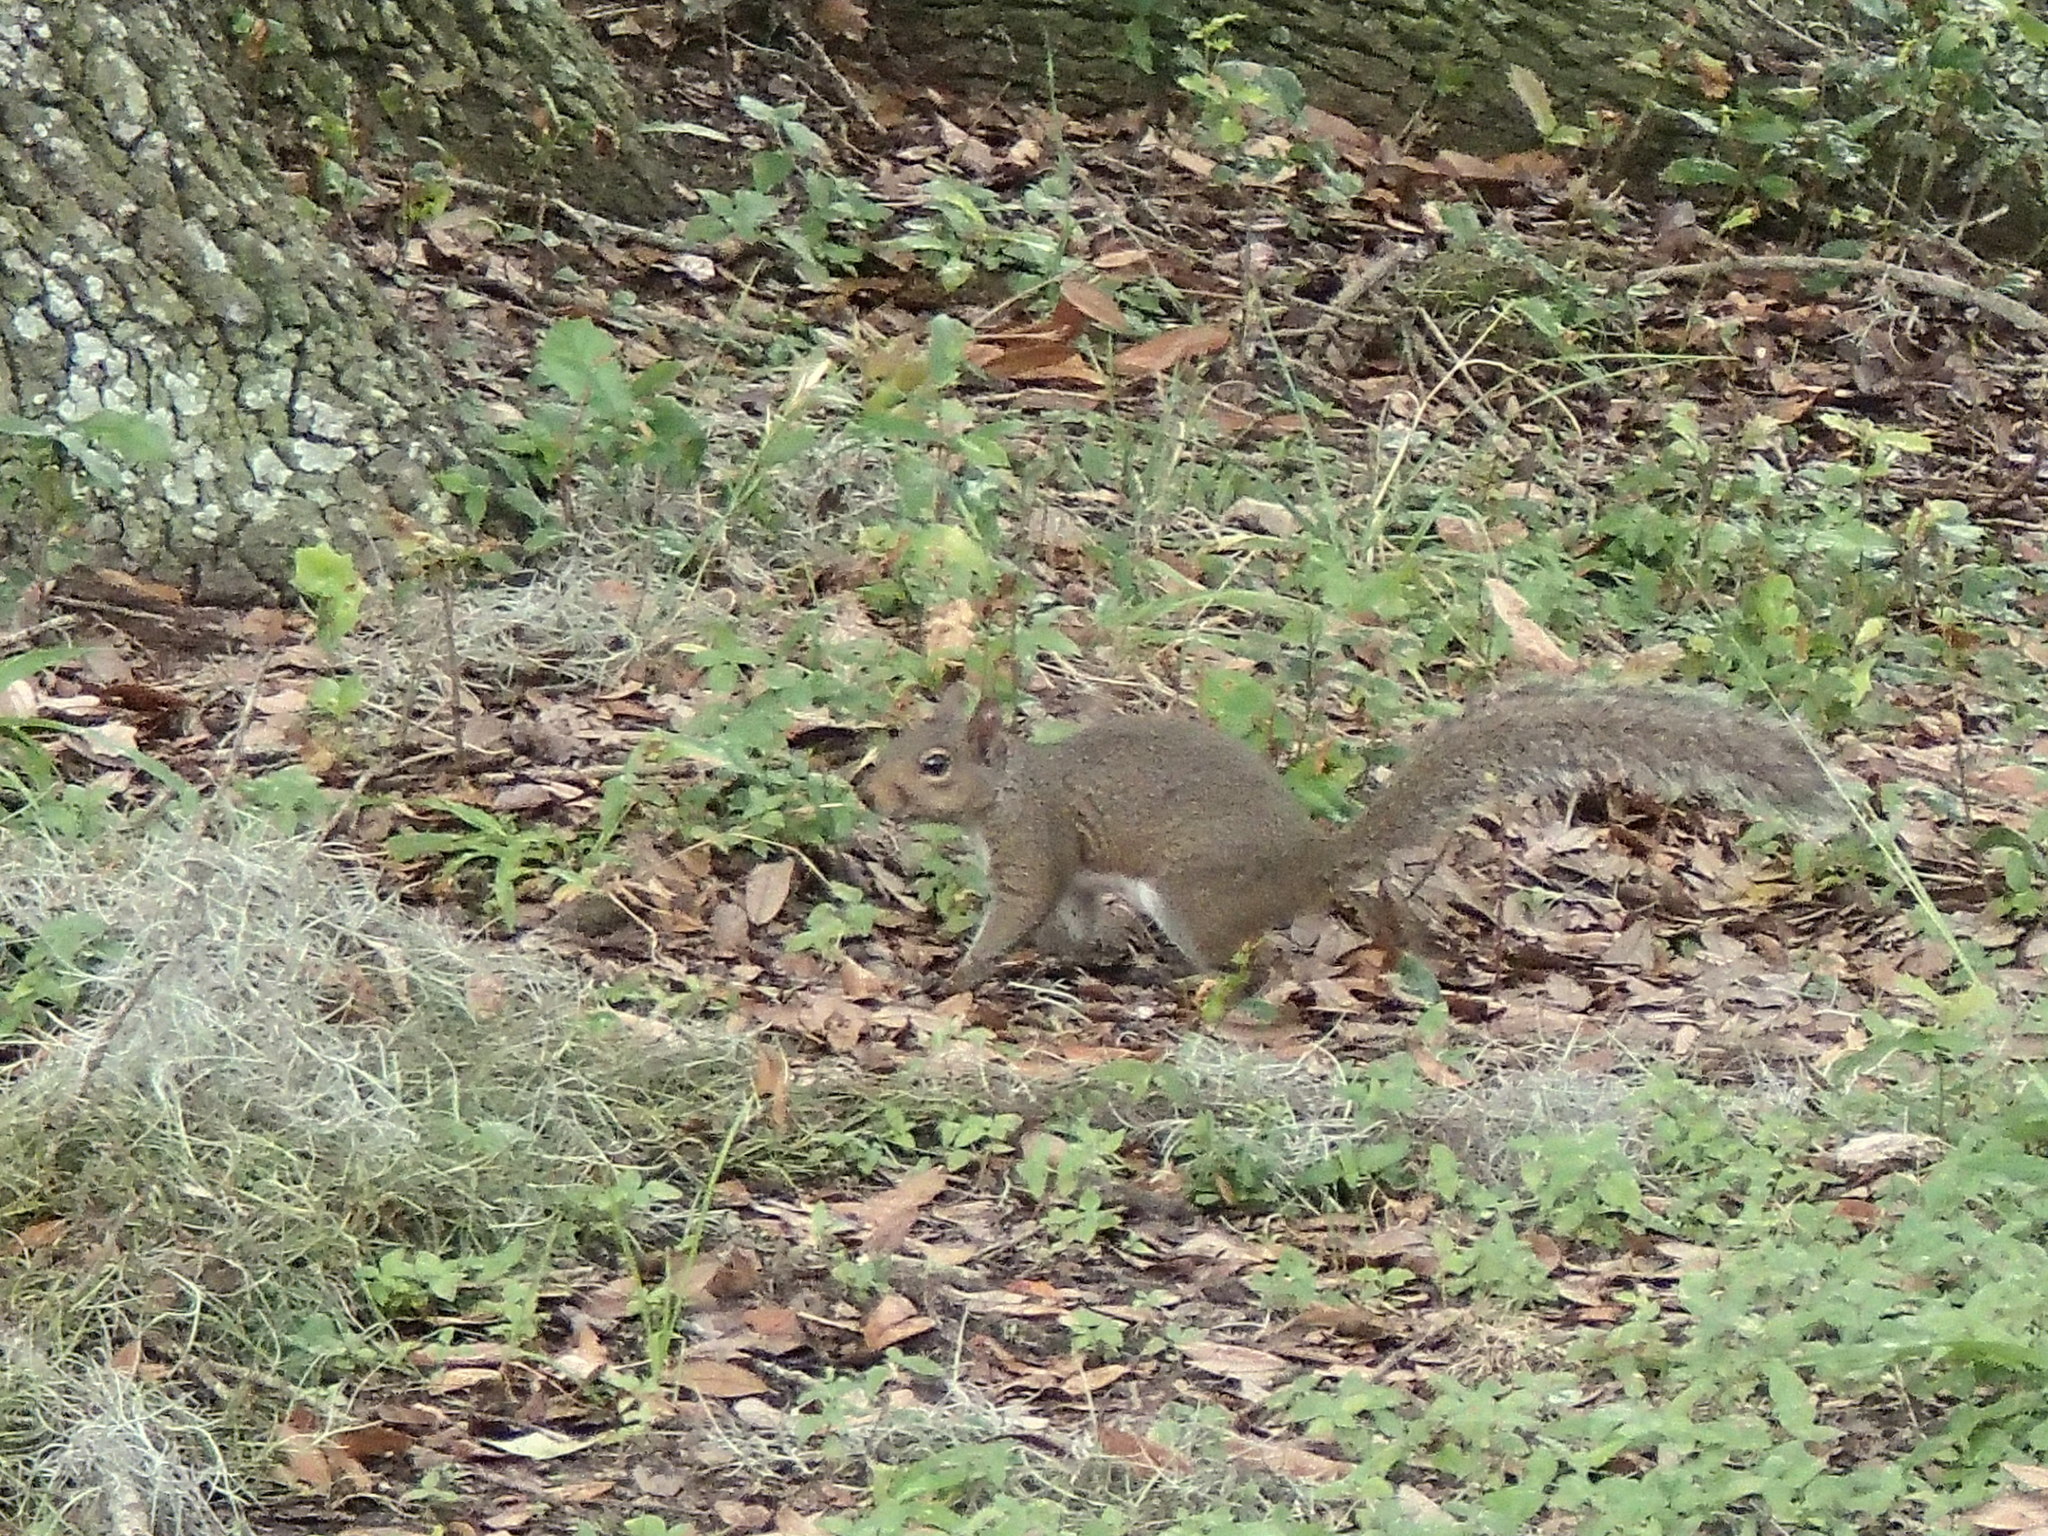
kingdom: Animalia
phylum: Chordata
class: Mammalia
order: Rodentia
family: Sciuridae
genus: Sciurus
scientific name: Sciurus carolinensis
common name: Eastern gray squirrel
